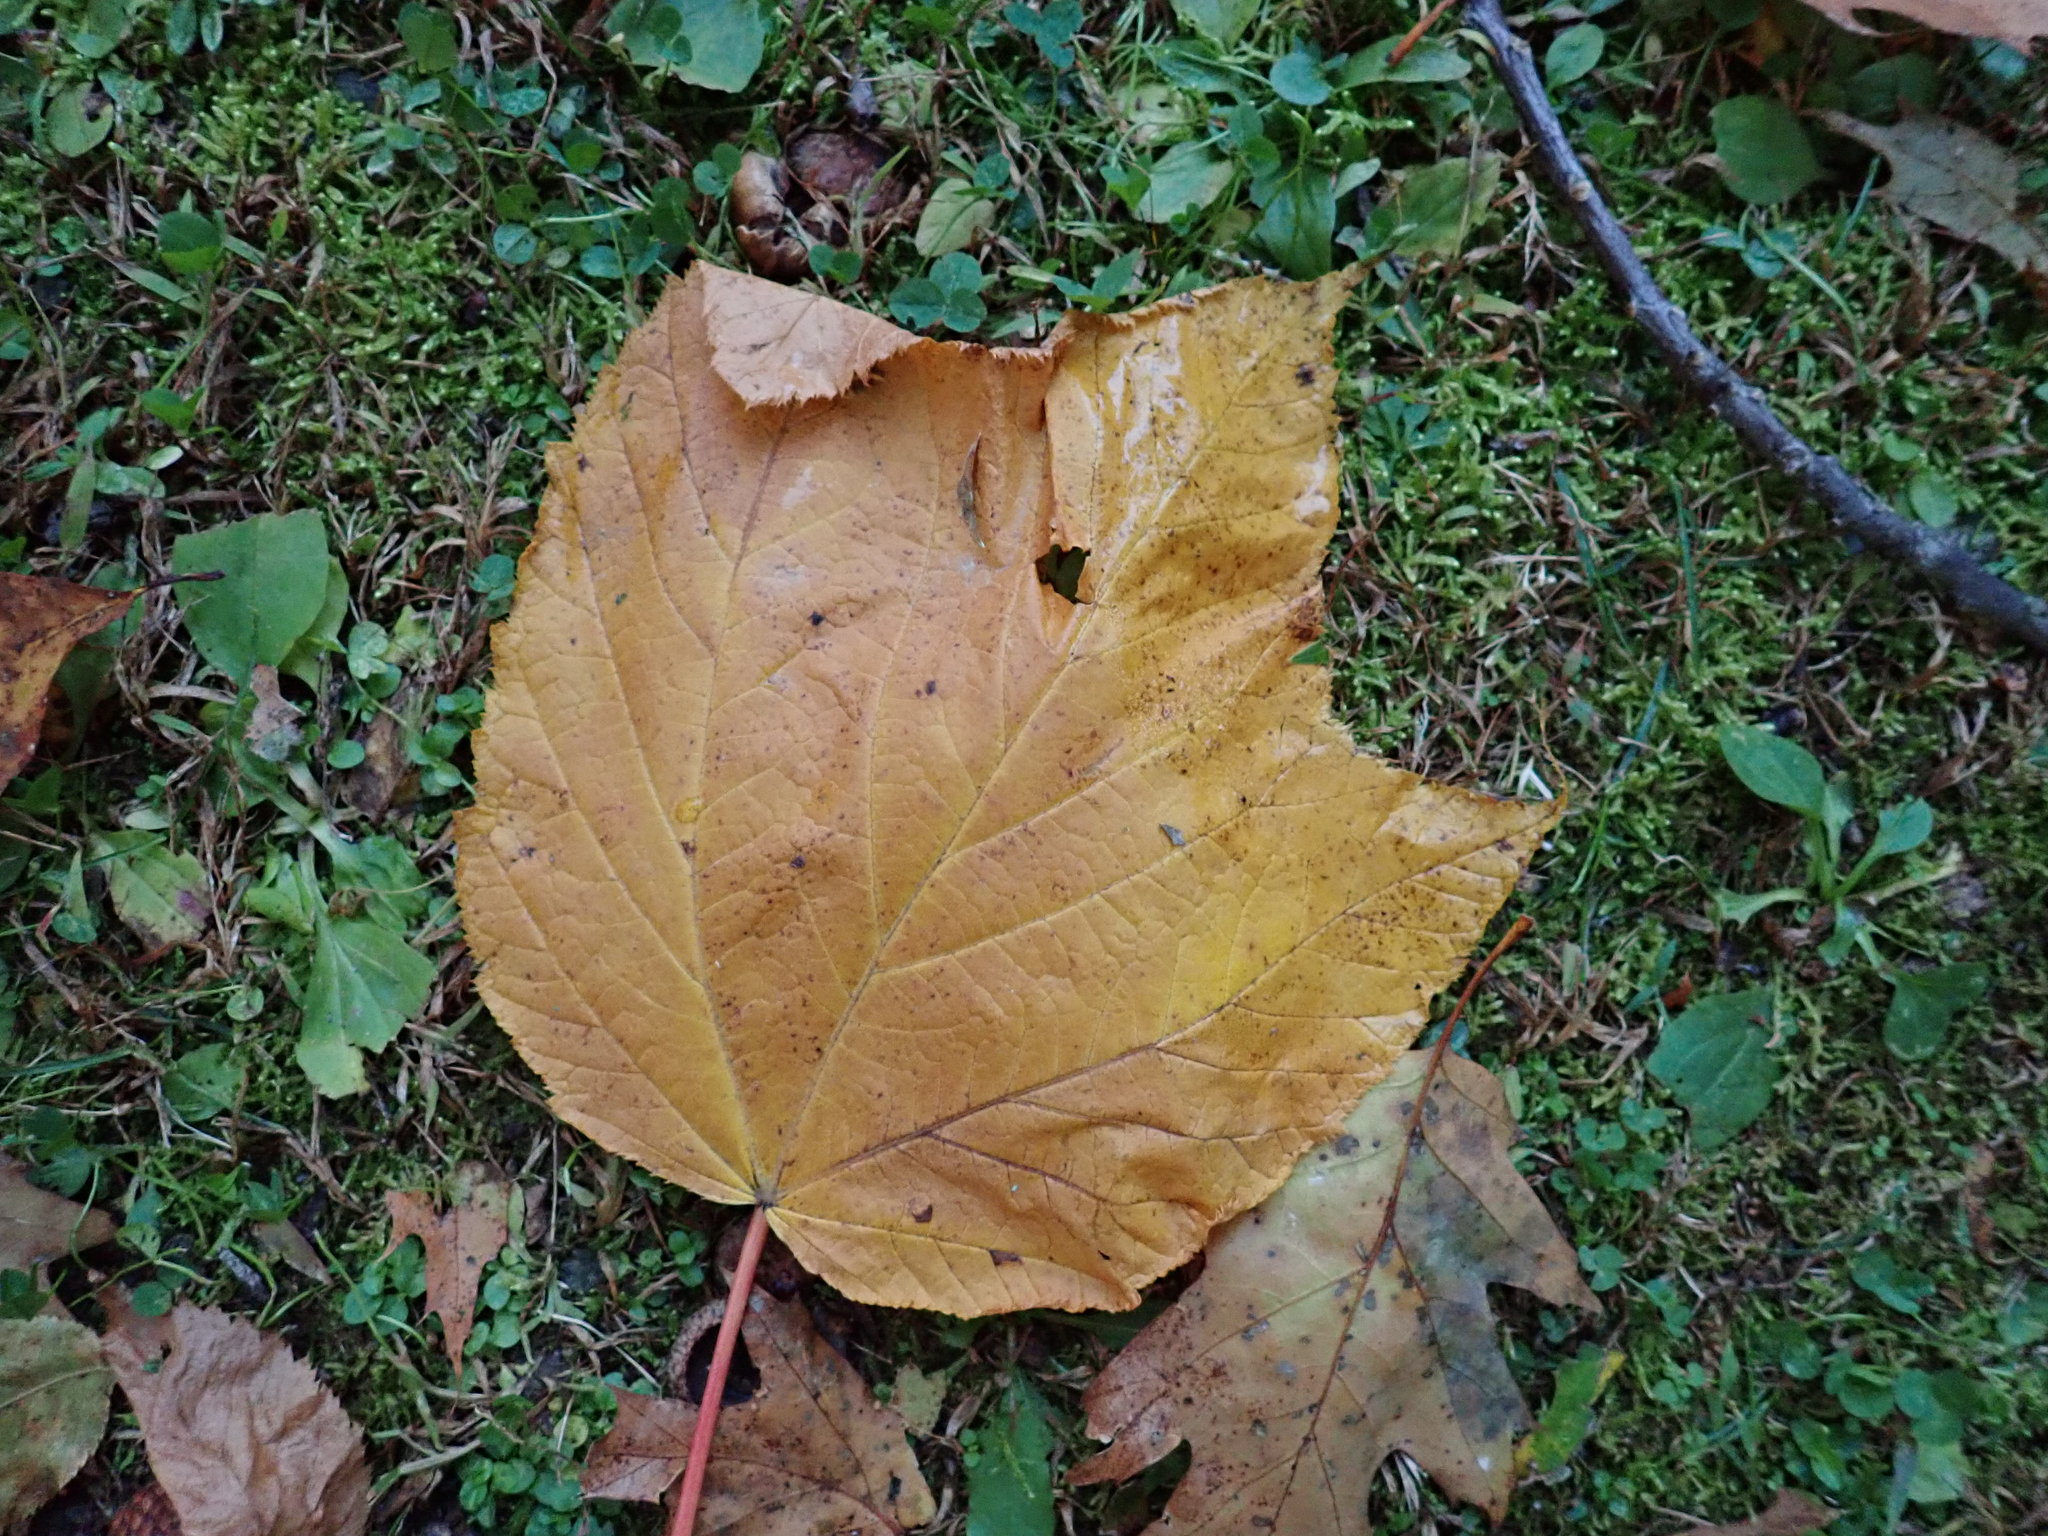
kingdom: Plantae
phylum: Tracheophyta
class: Magnoliopsida
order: Sapindales
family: Sapindaceae
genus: Acer
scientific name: Acer pensylvanicum
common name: Moosewood
